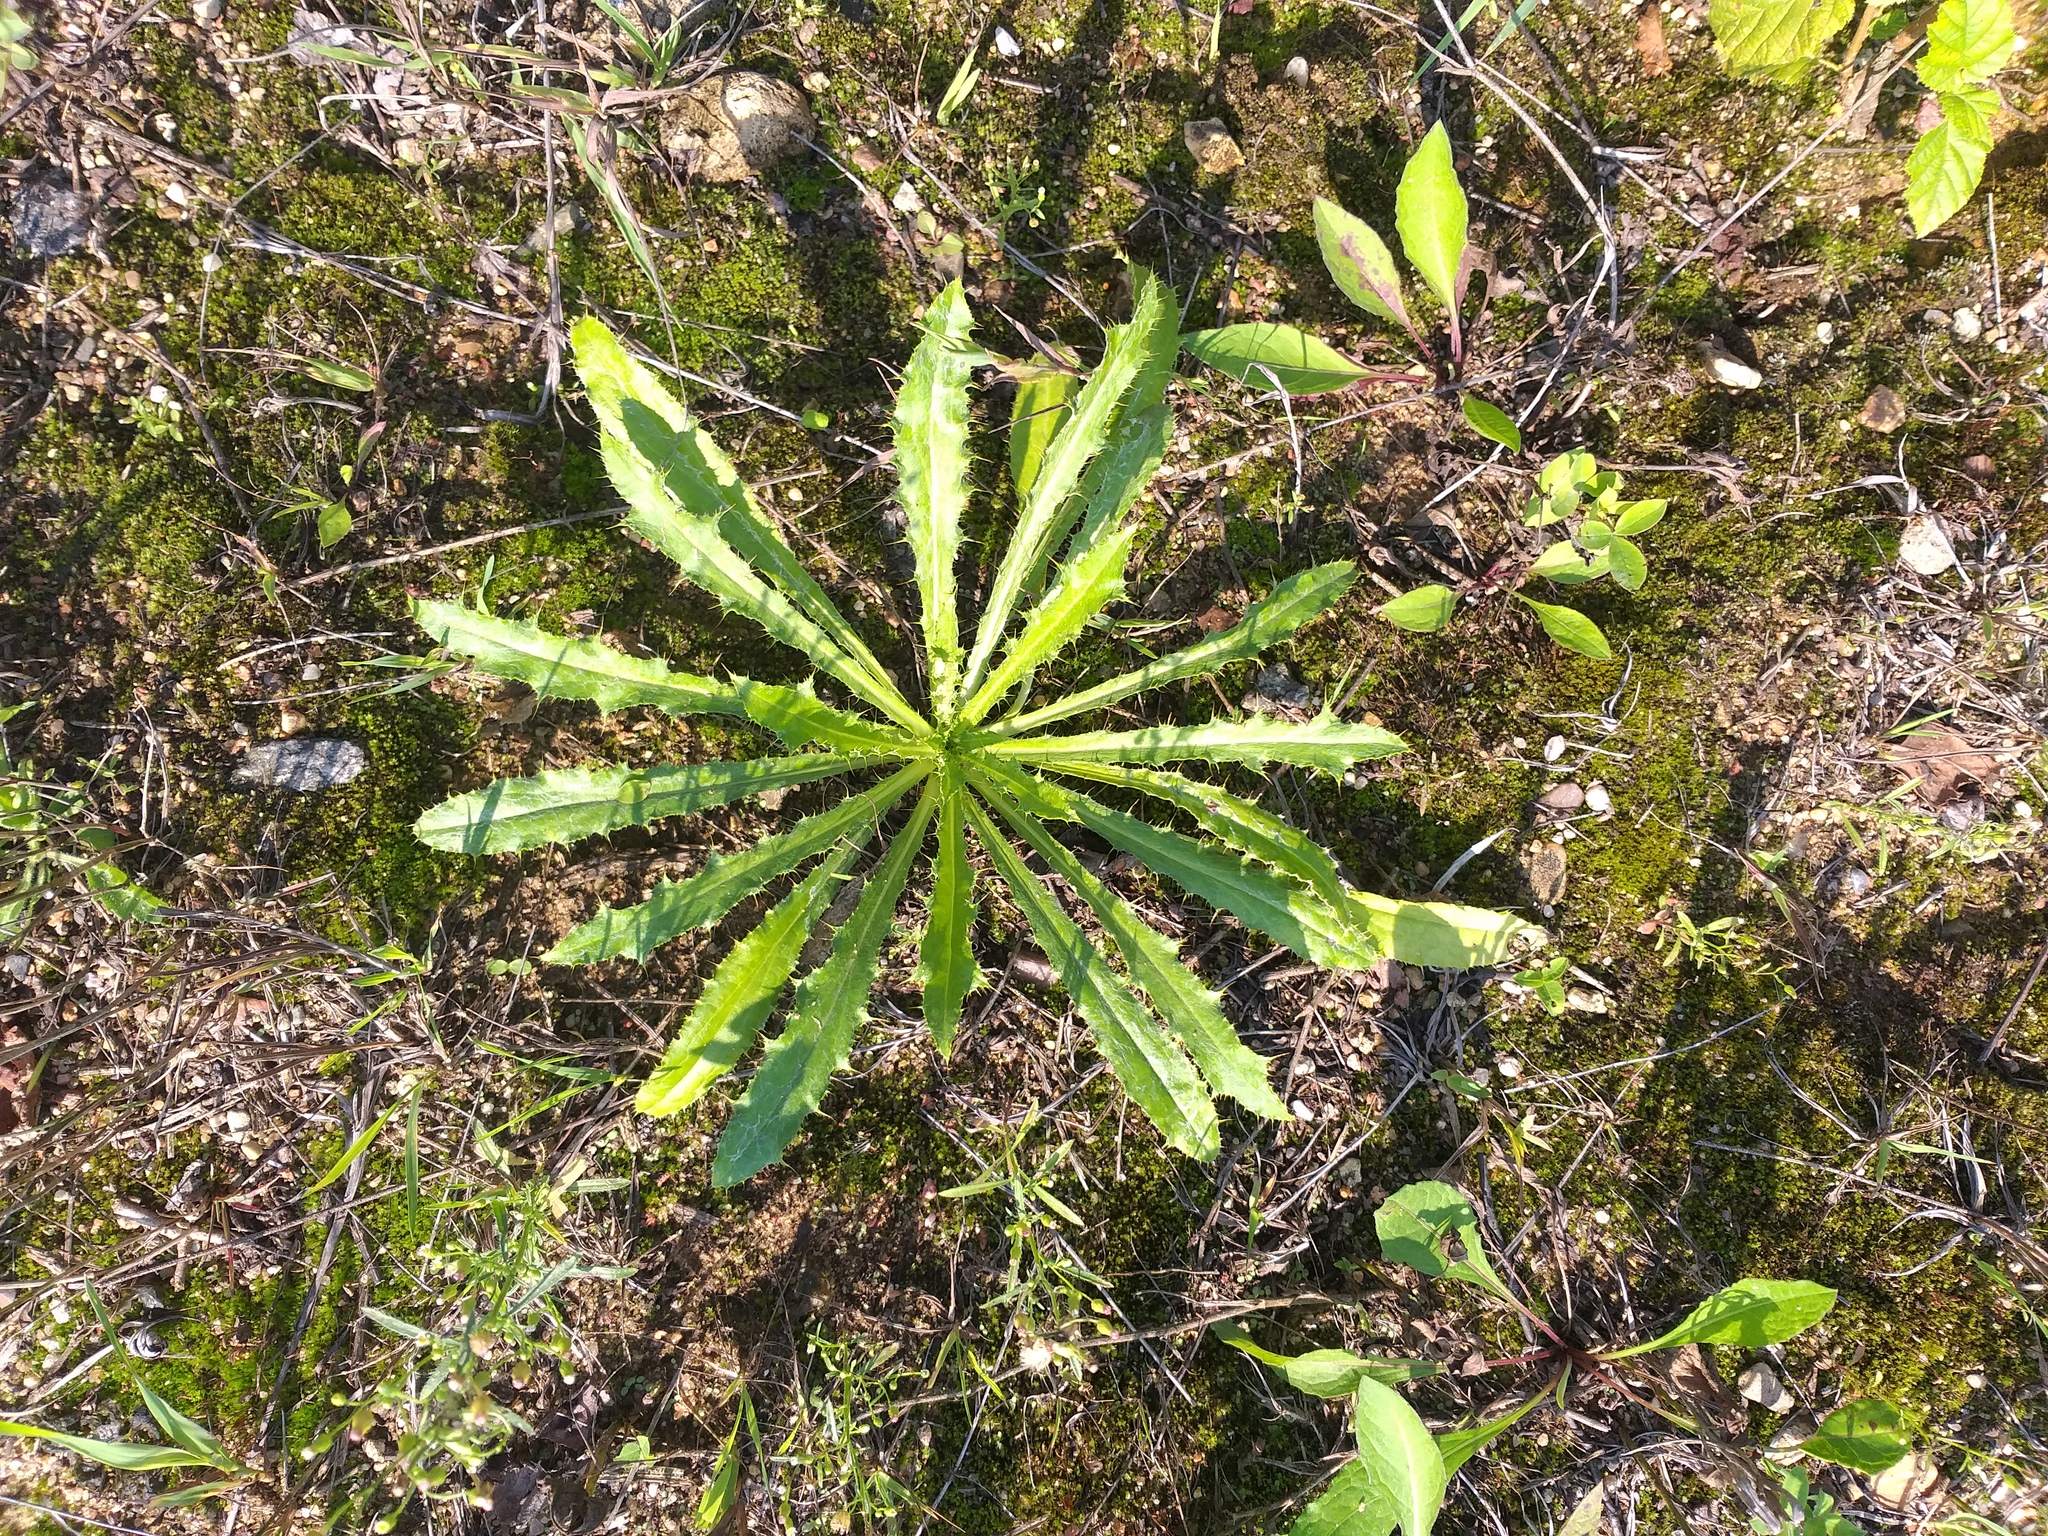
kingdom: Plantae
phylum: Tracheophyta
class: Magnoliopsida
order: Asterales
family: Asteraceae
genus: Carlina
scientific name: Carlina biebersteinii
